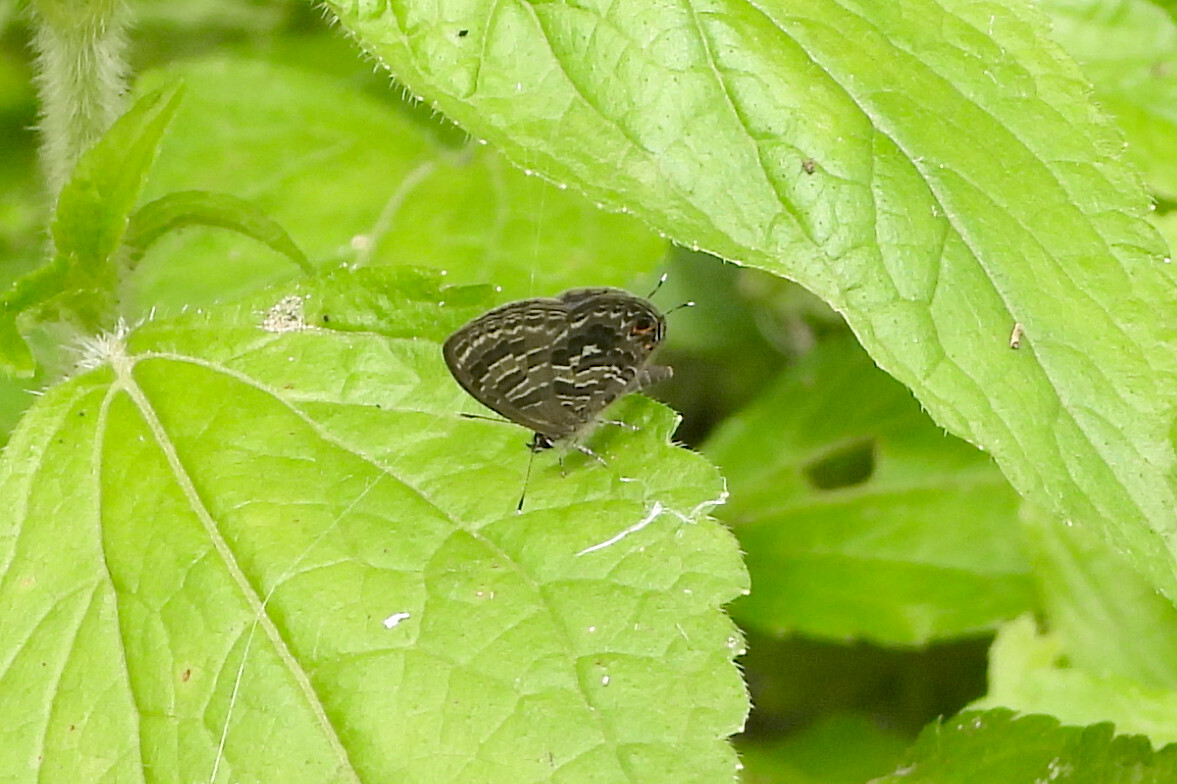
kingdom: Animalia
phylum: Arthropoda
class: Insecta
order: Lepidoptera
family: Lycaenidae
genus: Prosotas
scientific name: Prosotas aluta
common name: Barred lineblue
